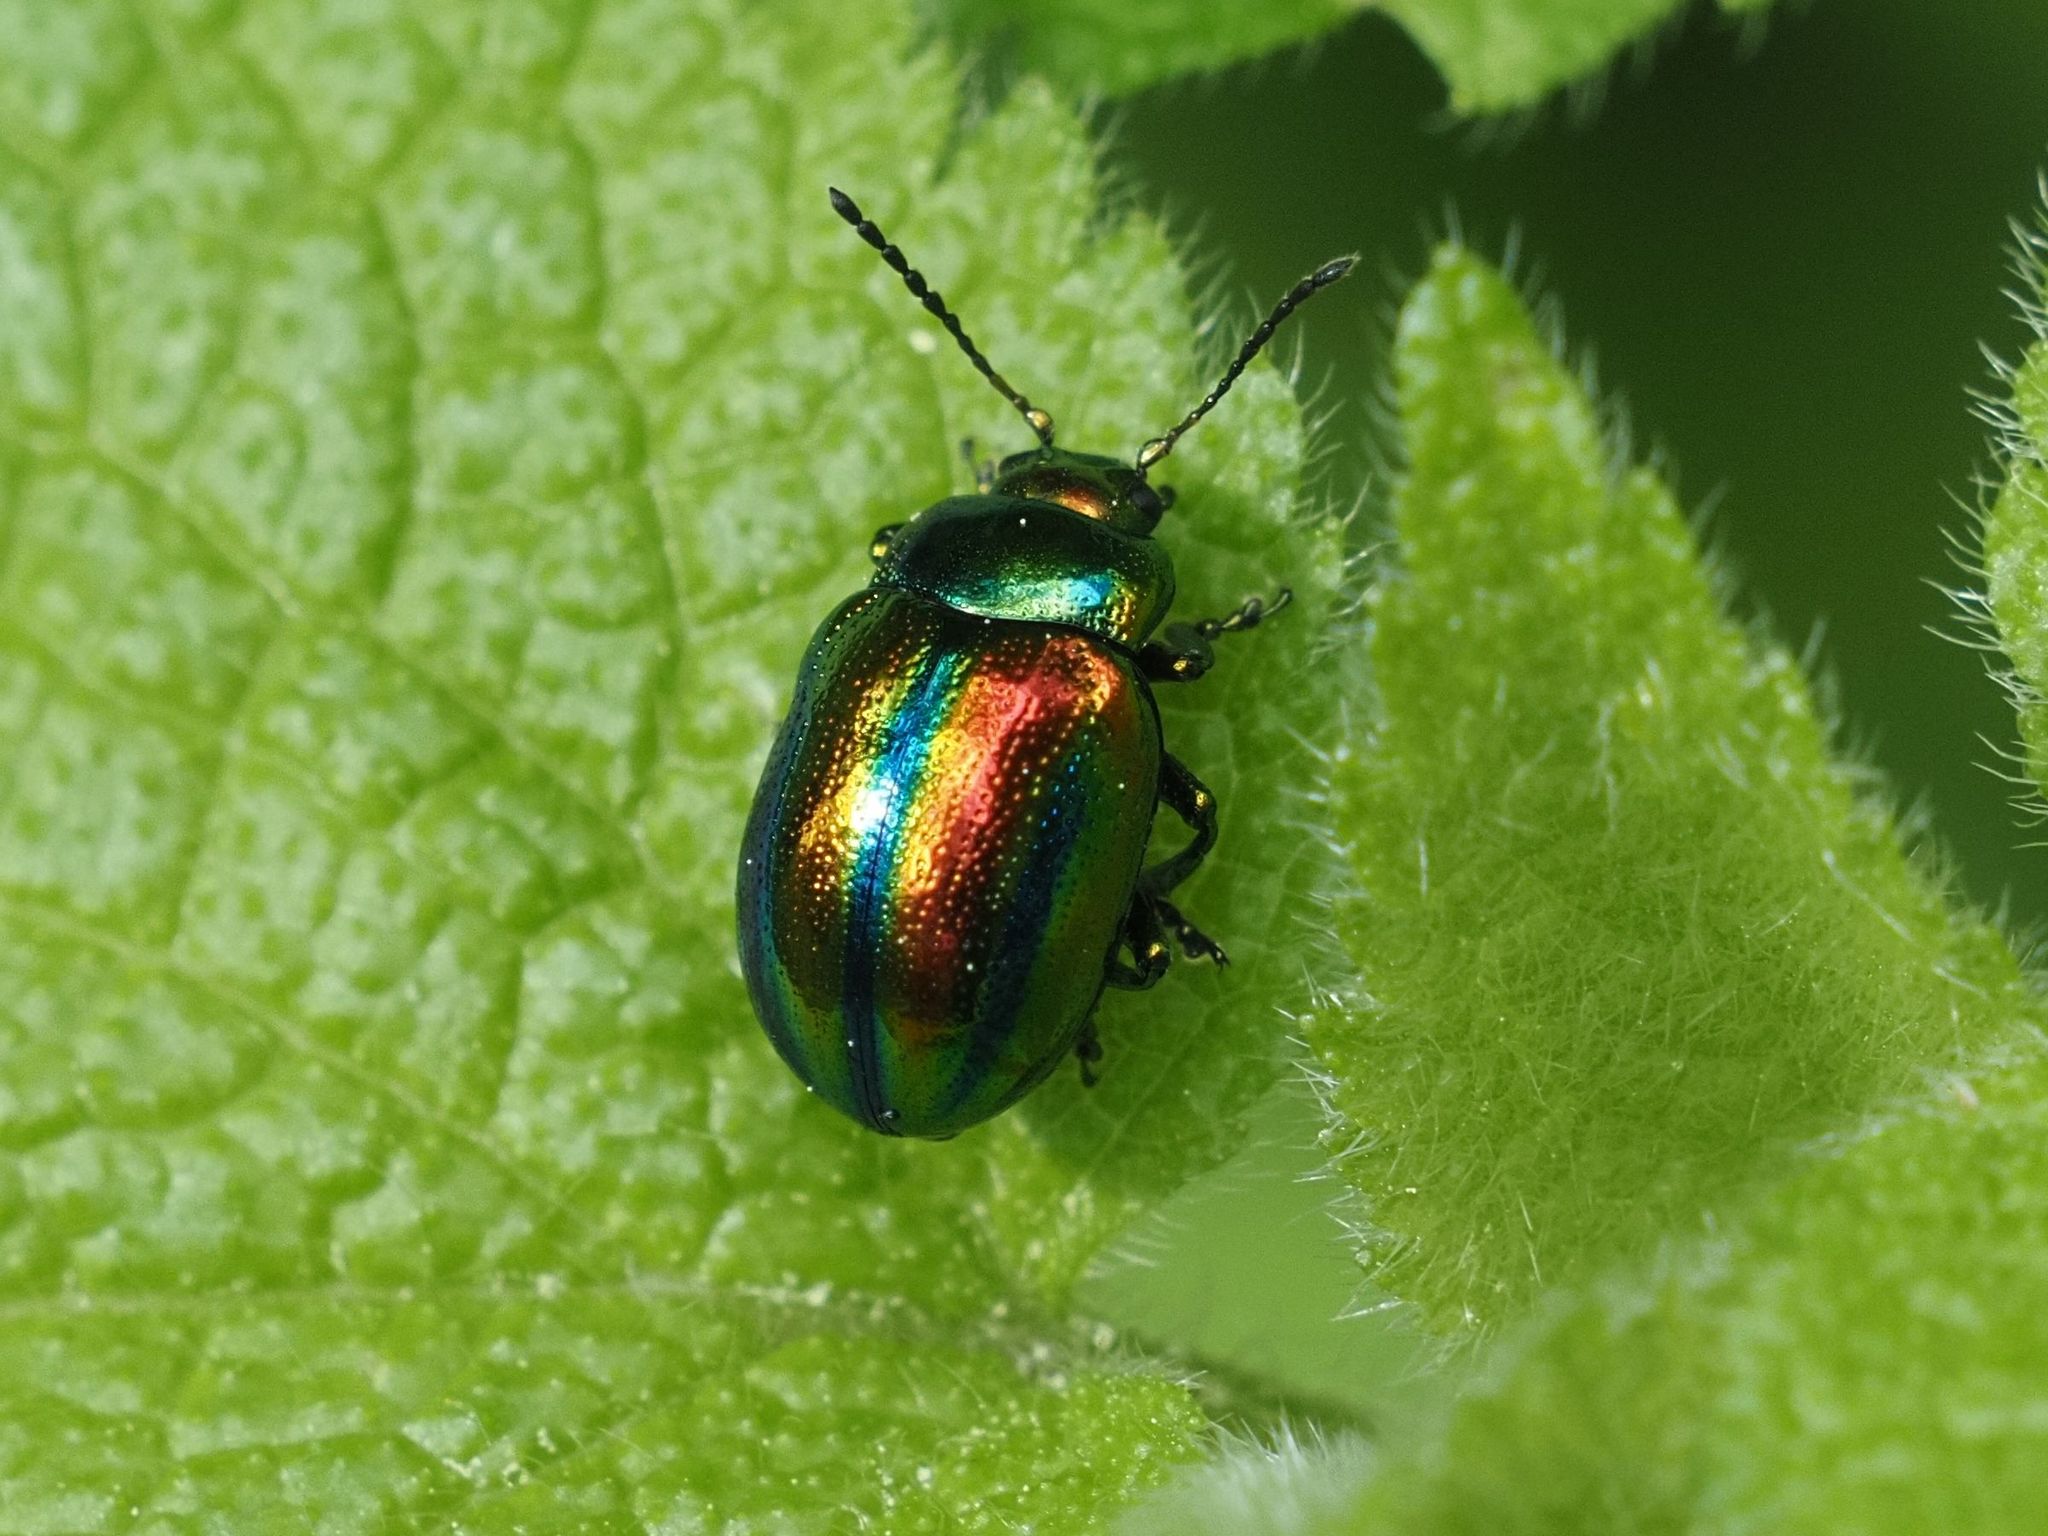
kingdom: Animalia
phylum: Arthropoda
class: Insecta
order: Coleoptera
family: Chrysomelidae
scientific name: Chrysomelidae
